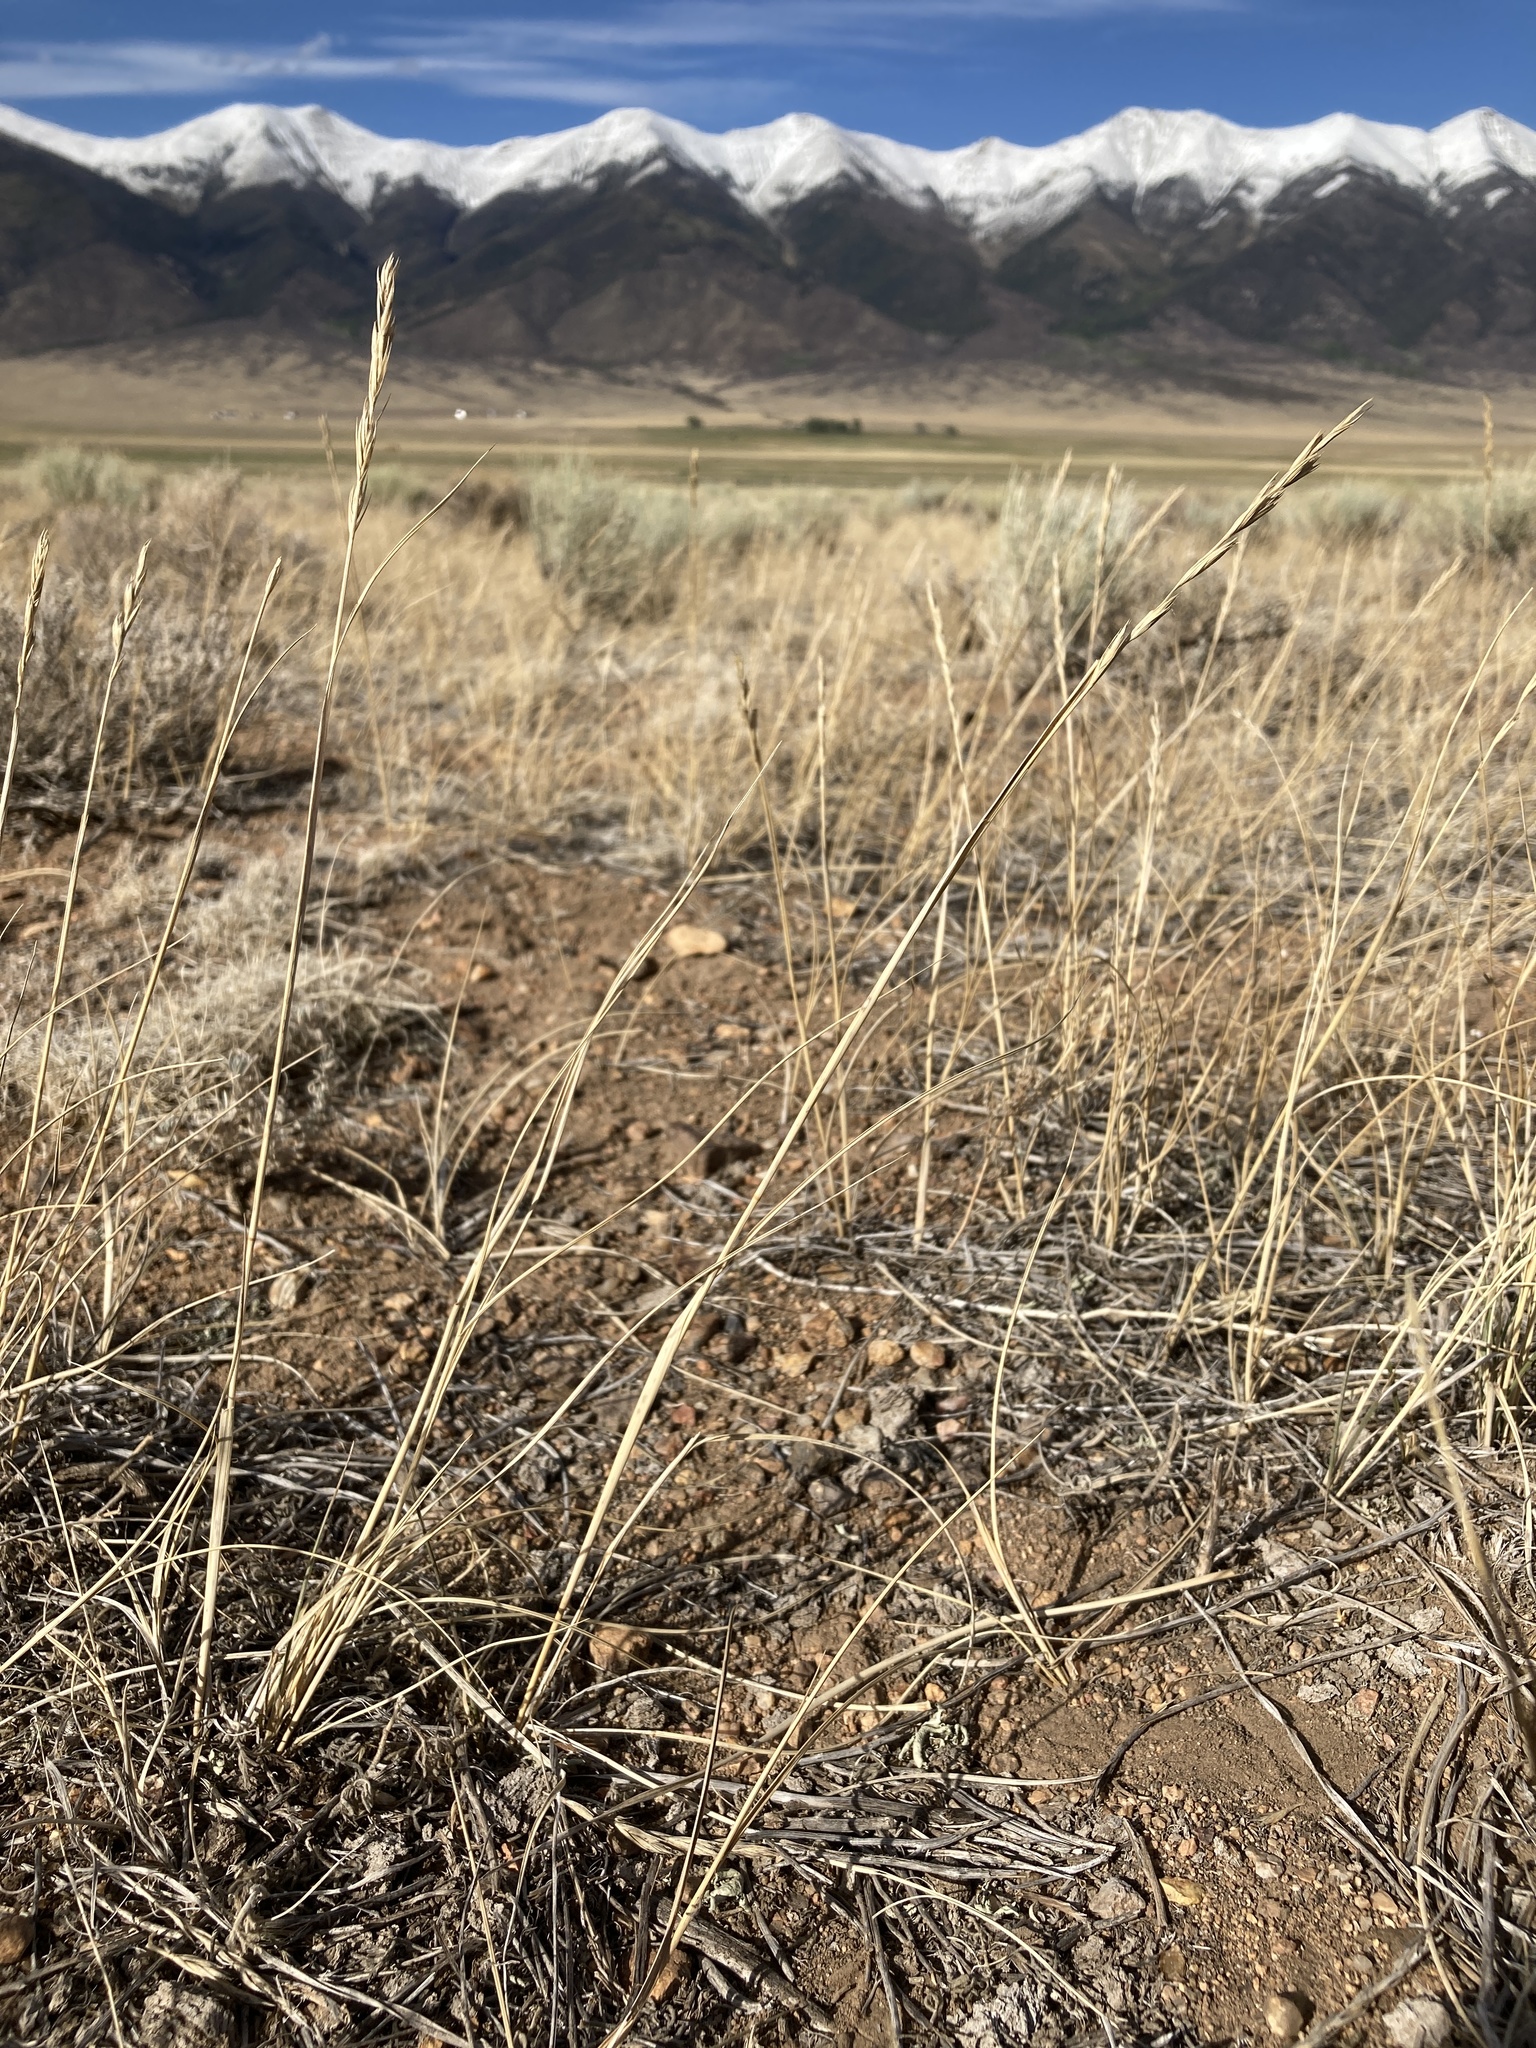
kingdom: Plantae
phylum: Tracheophyta
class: Liliopsida
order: Poales
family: Poaceae
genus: Elymus
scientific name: Elymus smithii
